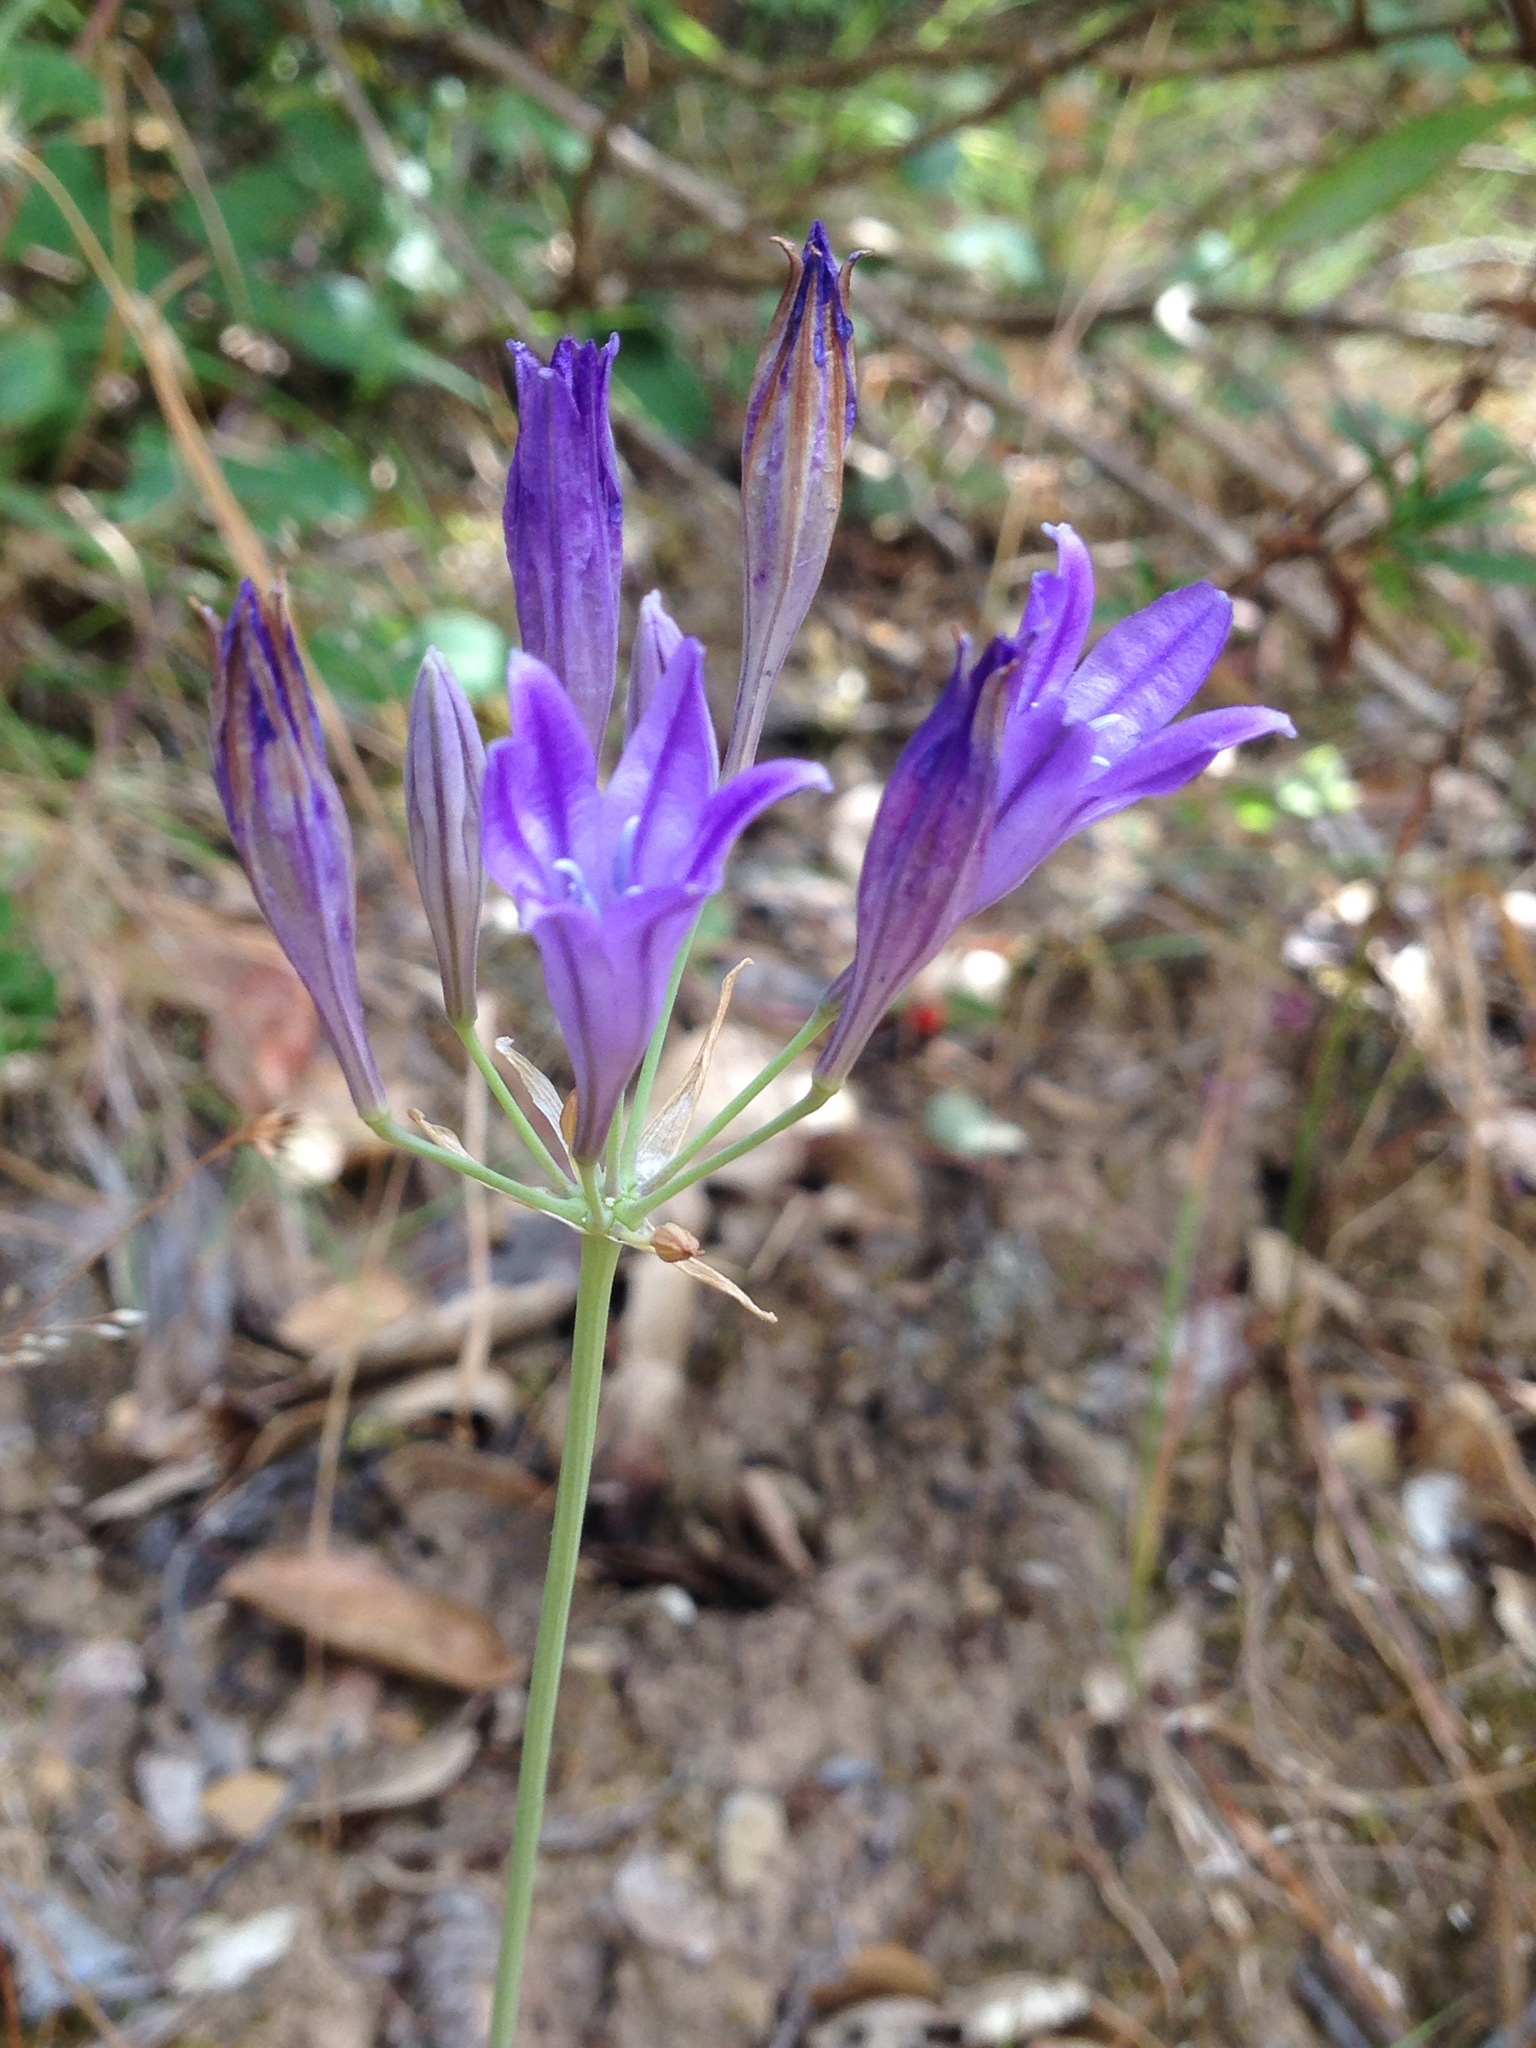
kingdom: Plantae
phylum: Tracheophyta
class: Liliopsida
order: Asparagales
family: Asparagaceae
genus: Triteleia
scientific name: Triteleia laxa
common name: Triplet-lily
